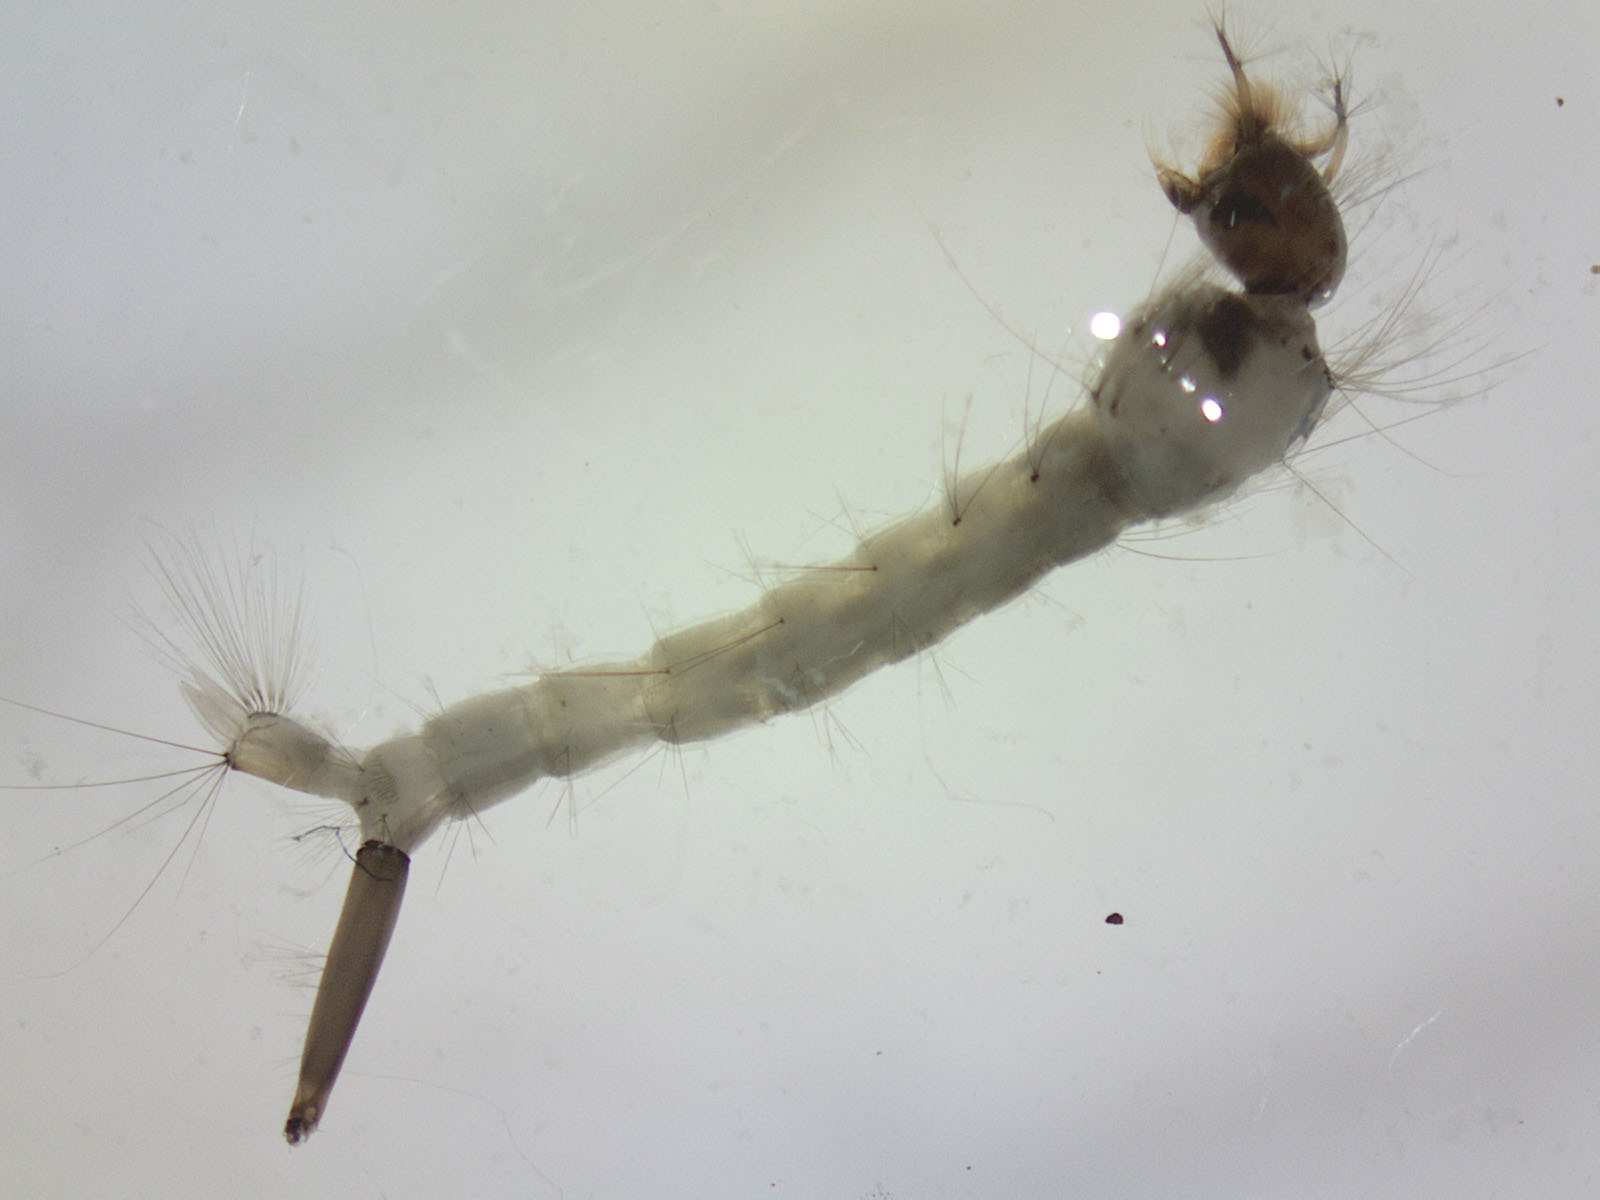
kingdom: Animalia
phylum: Arthropoda
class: Insecta
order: Diptera
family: Culicidae
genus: Culex
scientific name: Culex pervigilans
